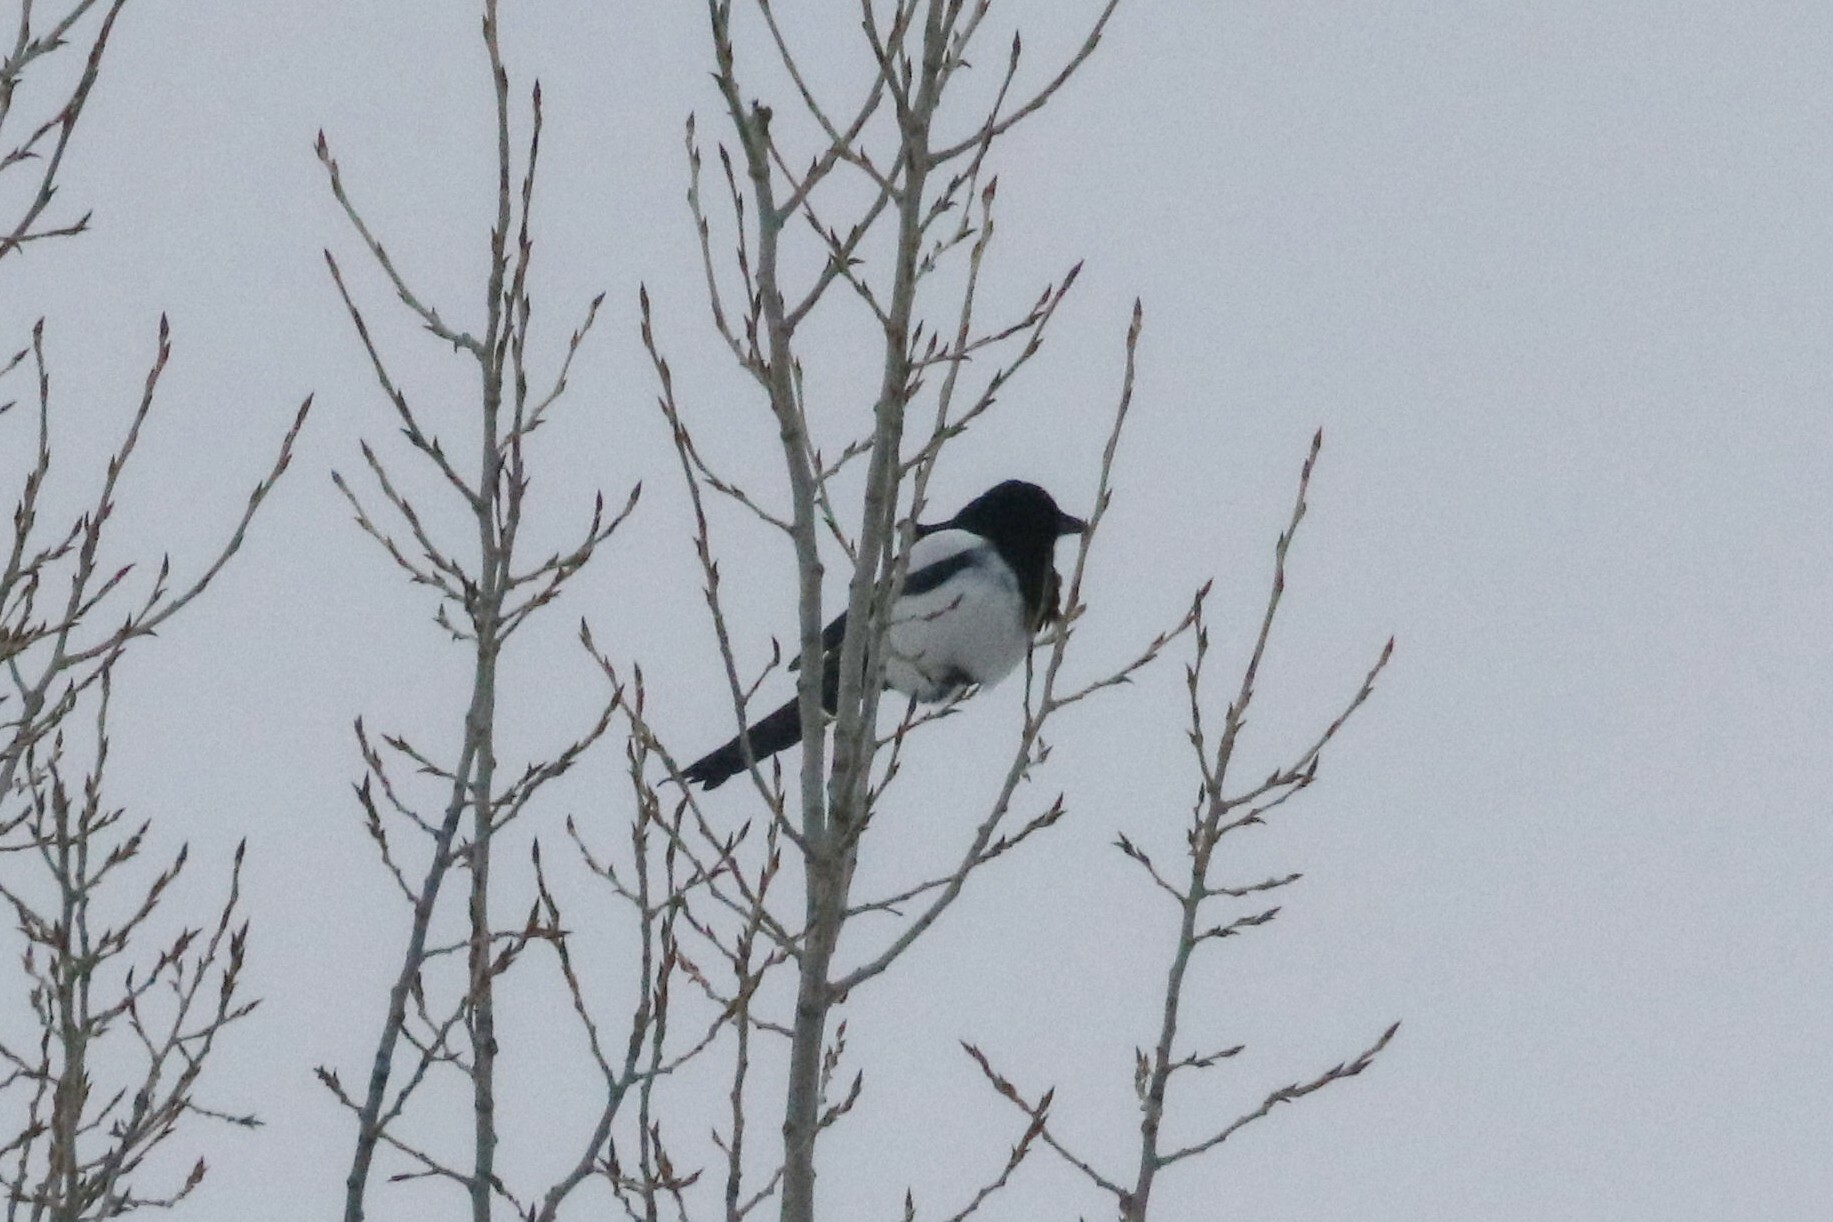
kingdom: Animalia
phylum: Chordata
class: Aves
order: Passeriformes
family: Corvidae
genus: Pica
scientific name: Pica pica
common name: Eurasian magpie
